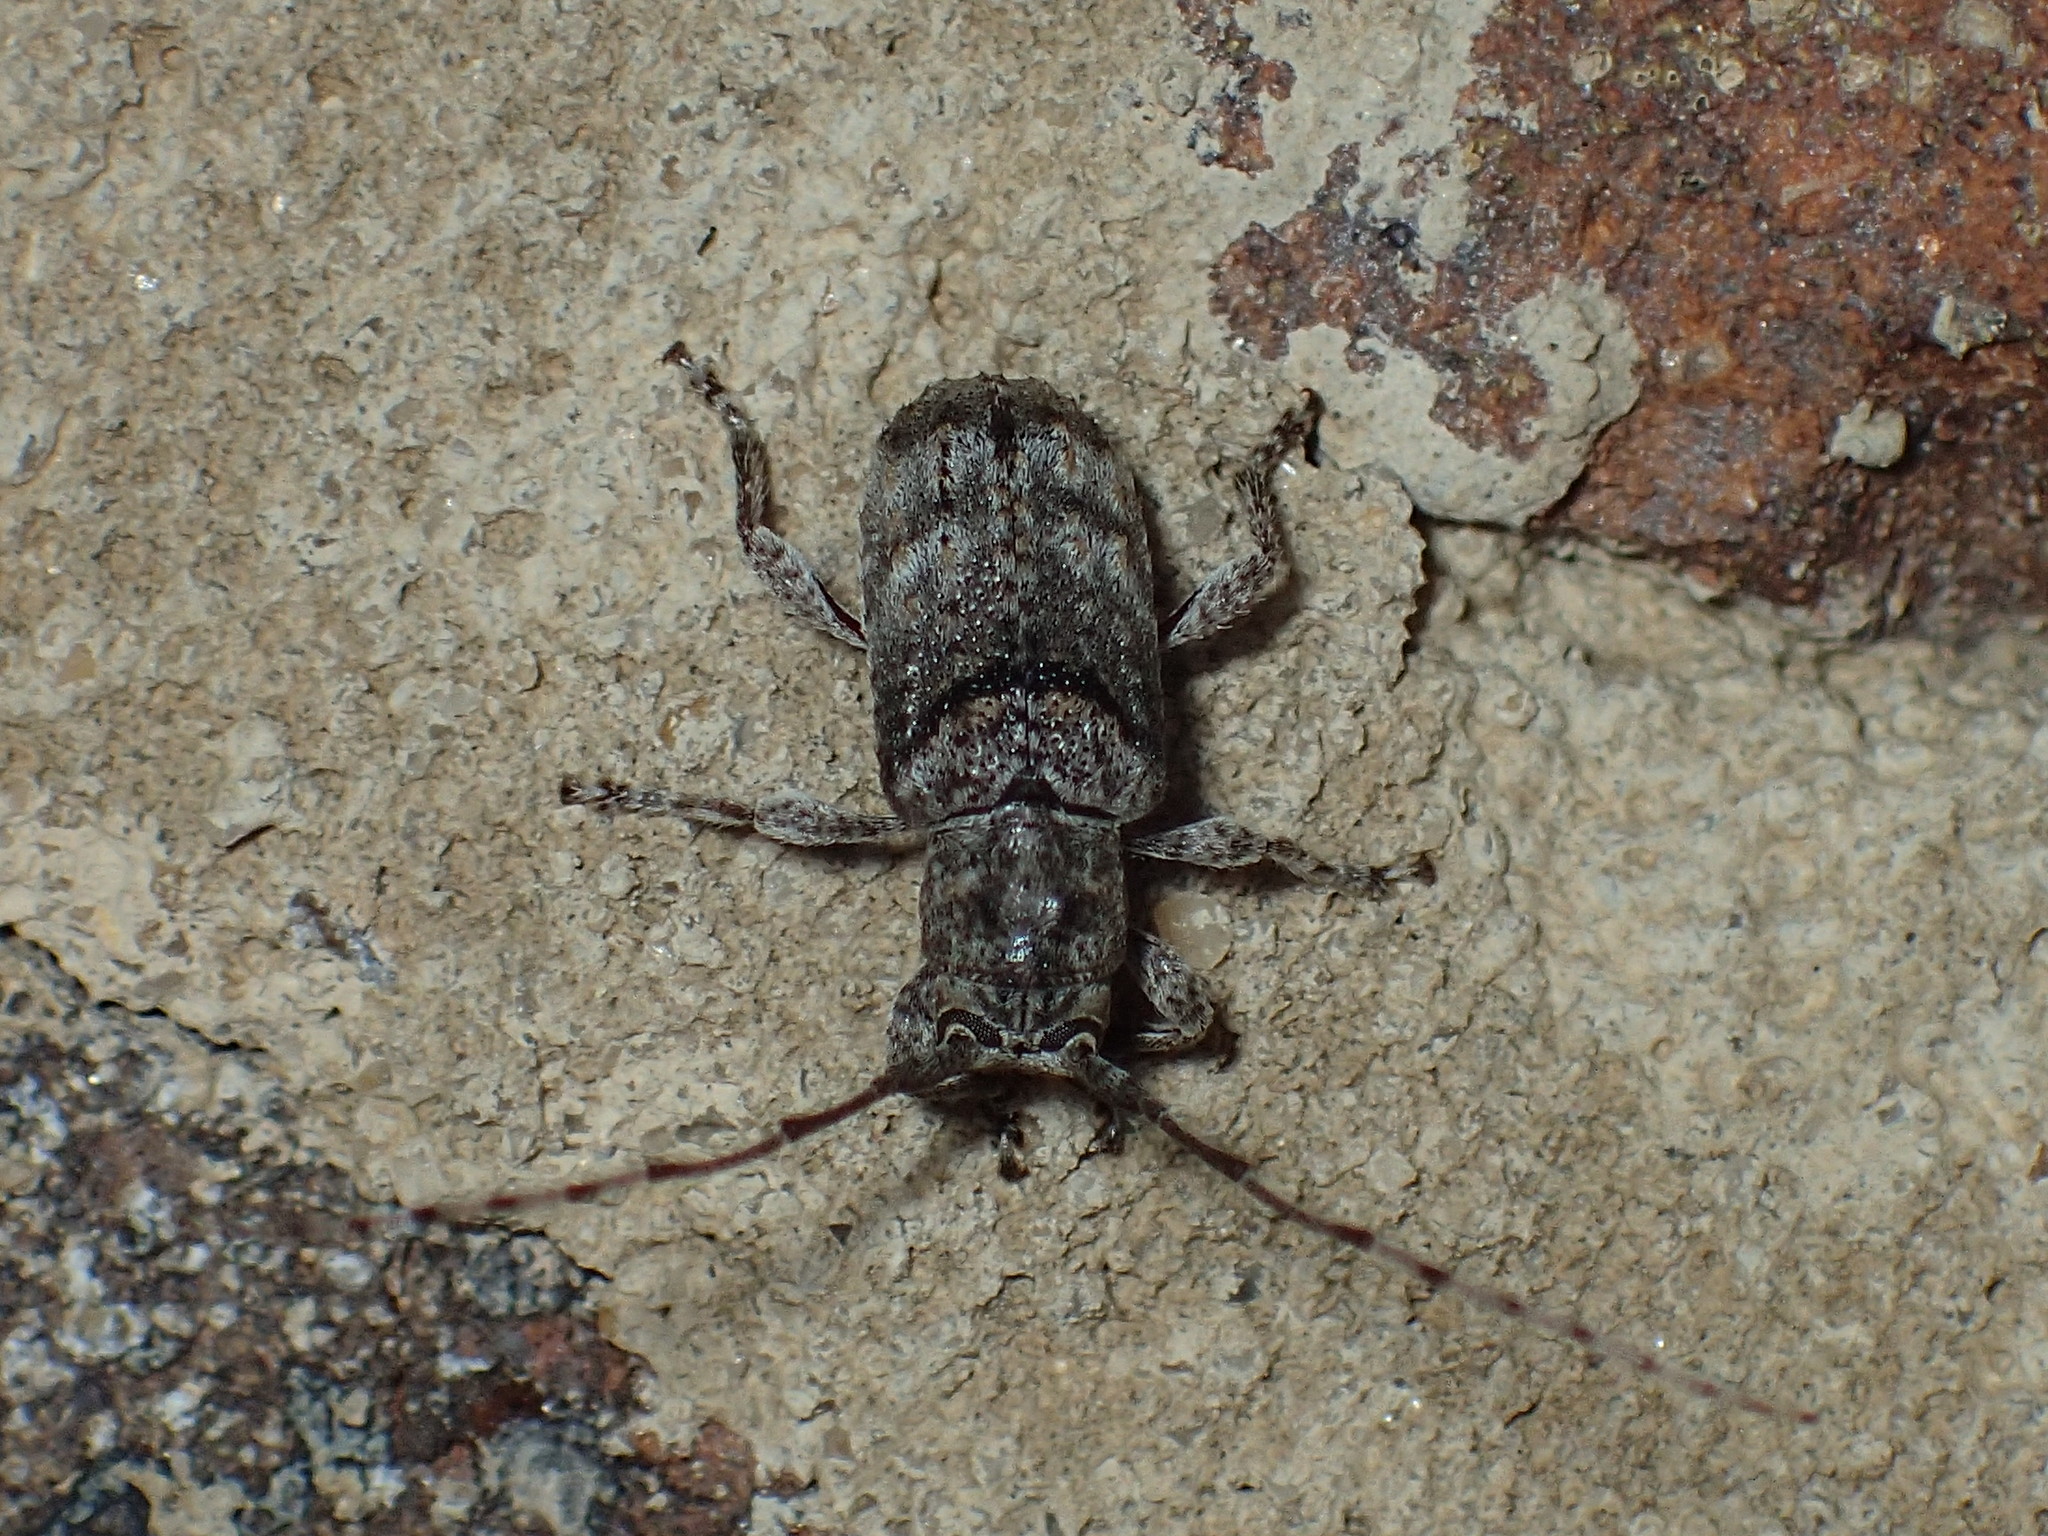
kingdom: Animalia
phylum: Arthropoda
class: Insecta
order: Coleoptera
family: Cerambycidae
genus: Ecyrus
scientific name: Ecyrus dasycerus
